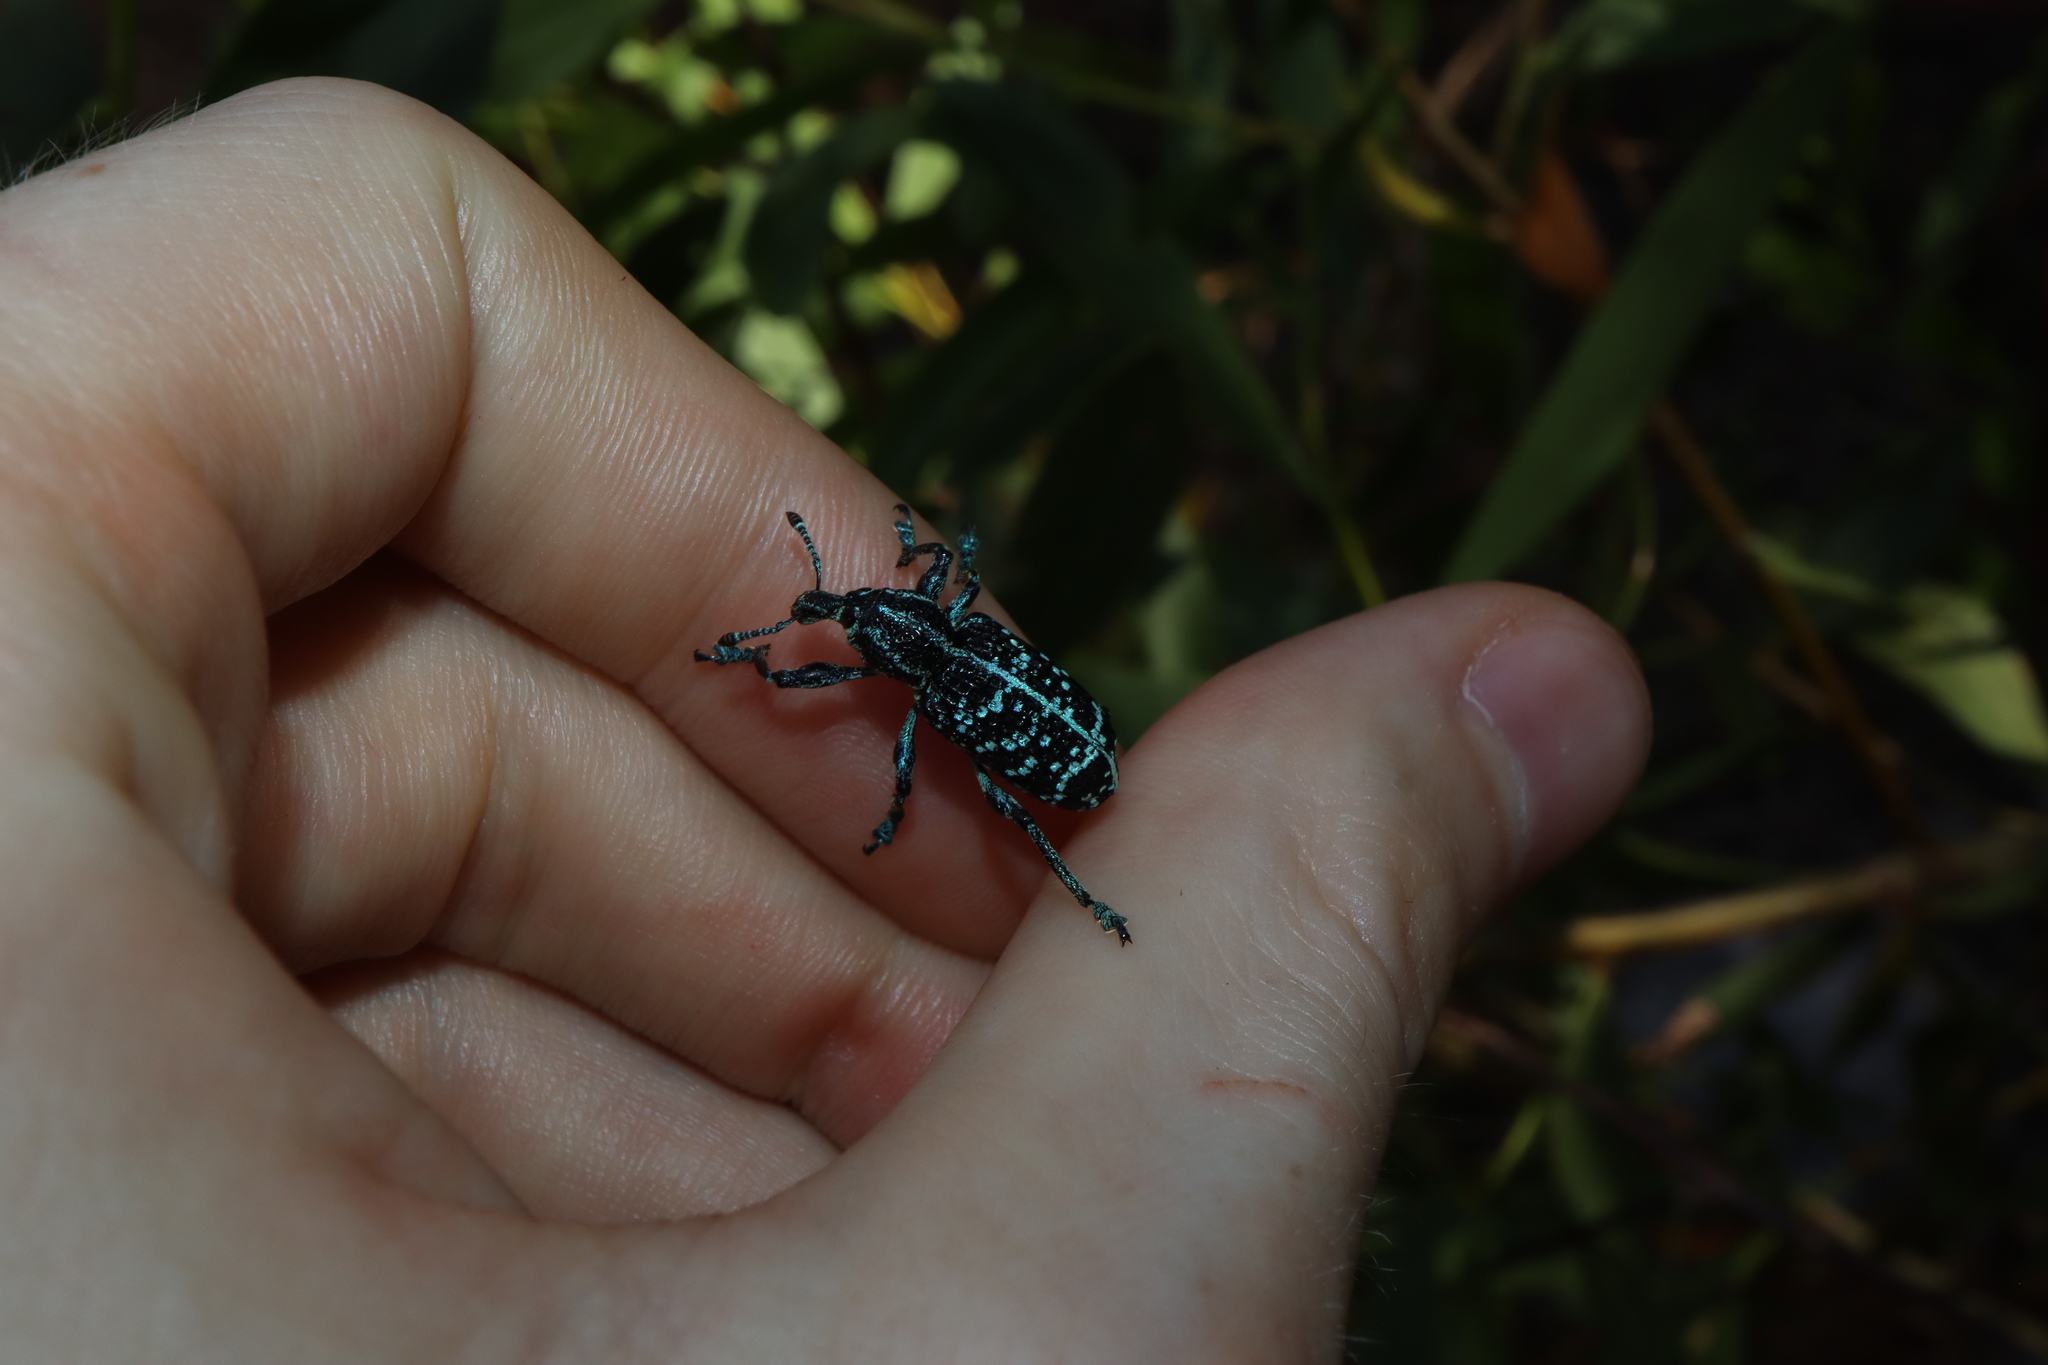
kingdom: Animalia
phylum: Arthropoda
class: Insecta
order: Coleoptera
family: Curculionidae
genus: Chrysolopus
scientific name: Chrysolopus spectabilis
